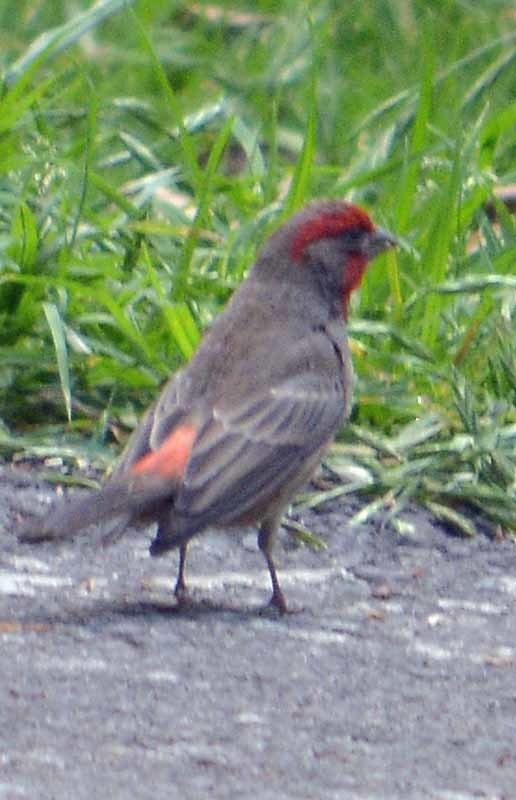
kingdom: Animalia
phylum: Chordata
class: Aves
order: Passeriformes
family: Fringillidae
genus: Haemorhous
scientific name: Haemorhous mexicanus
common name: House finch
